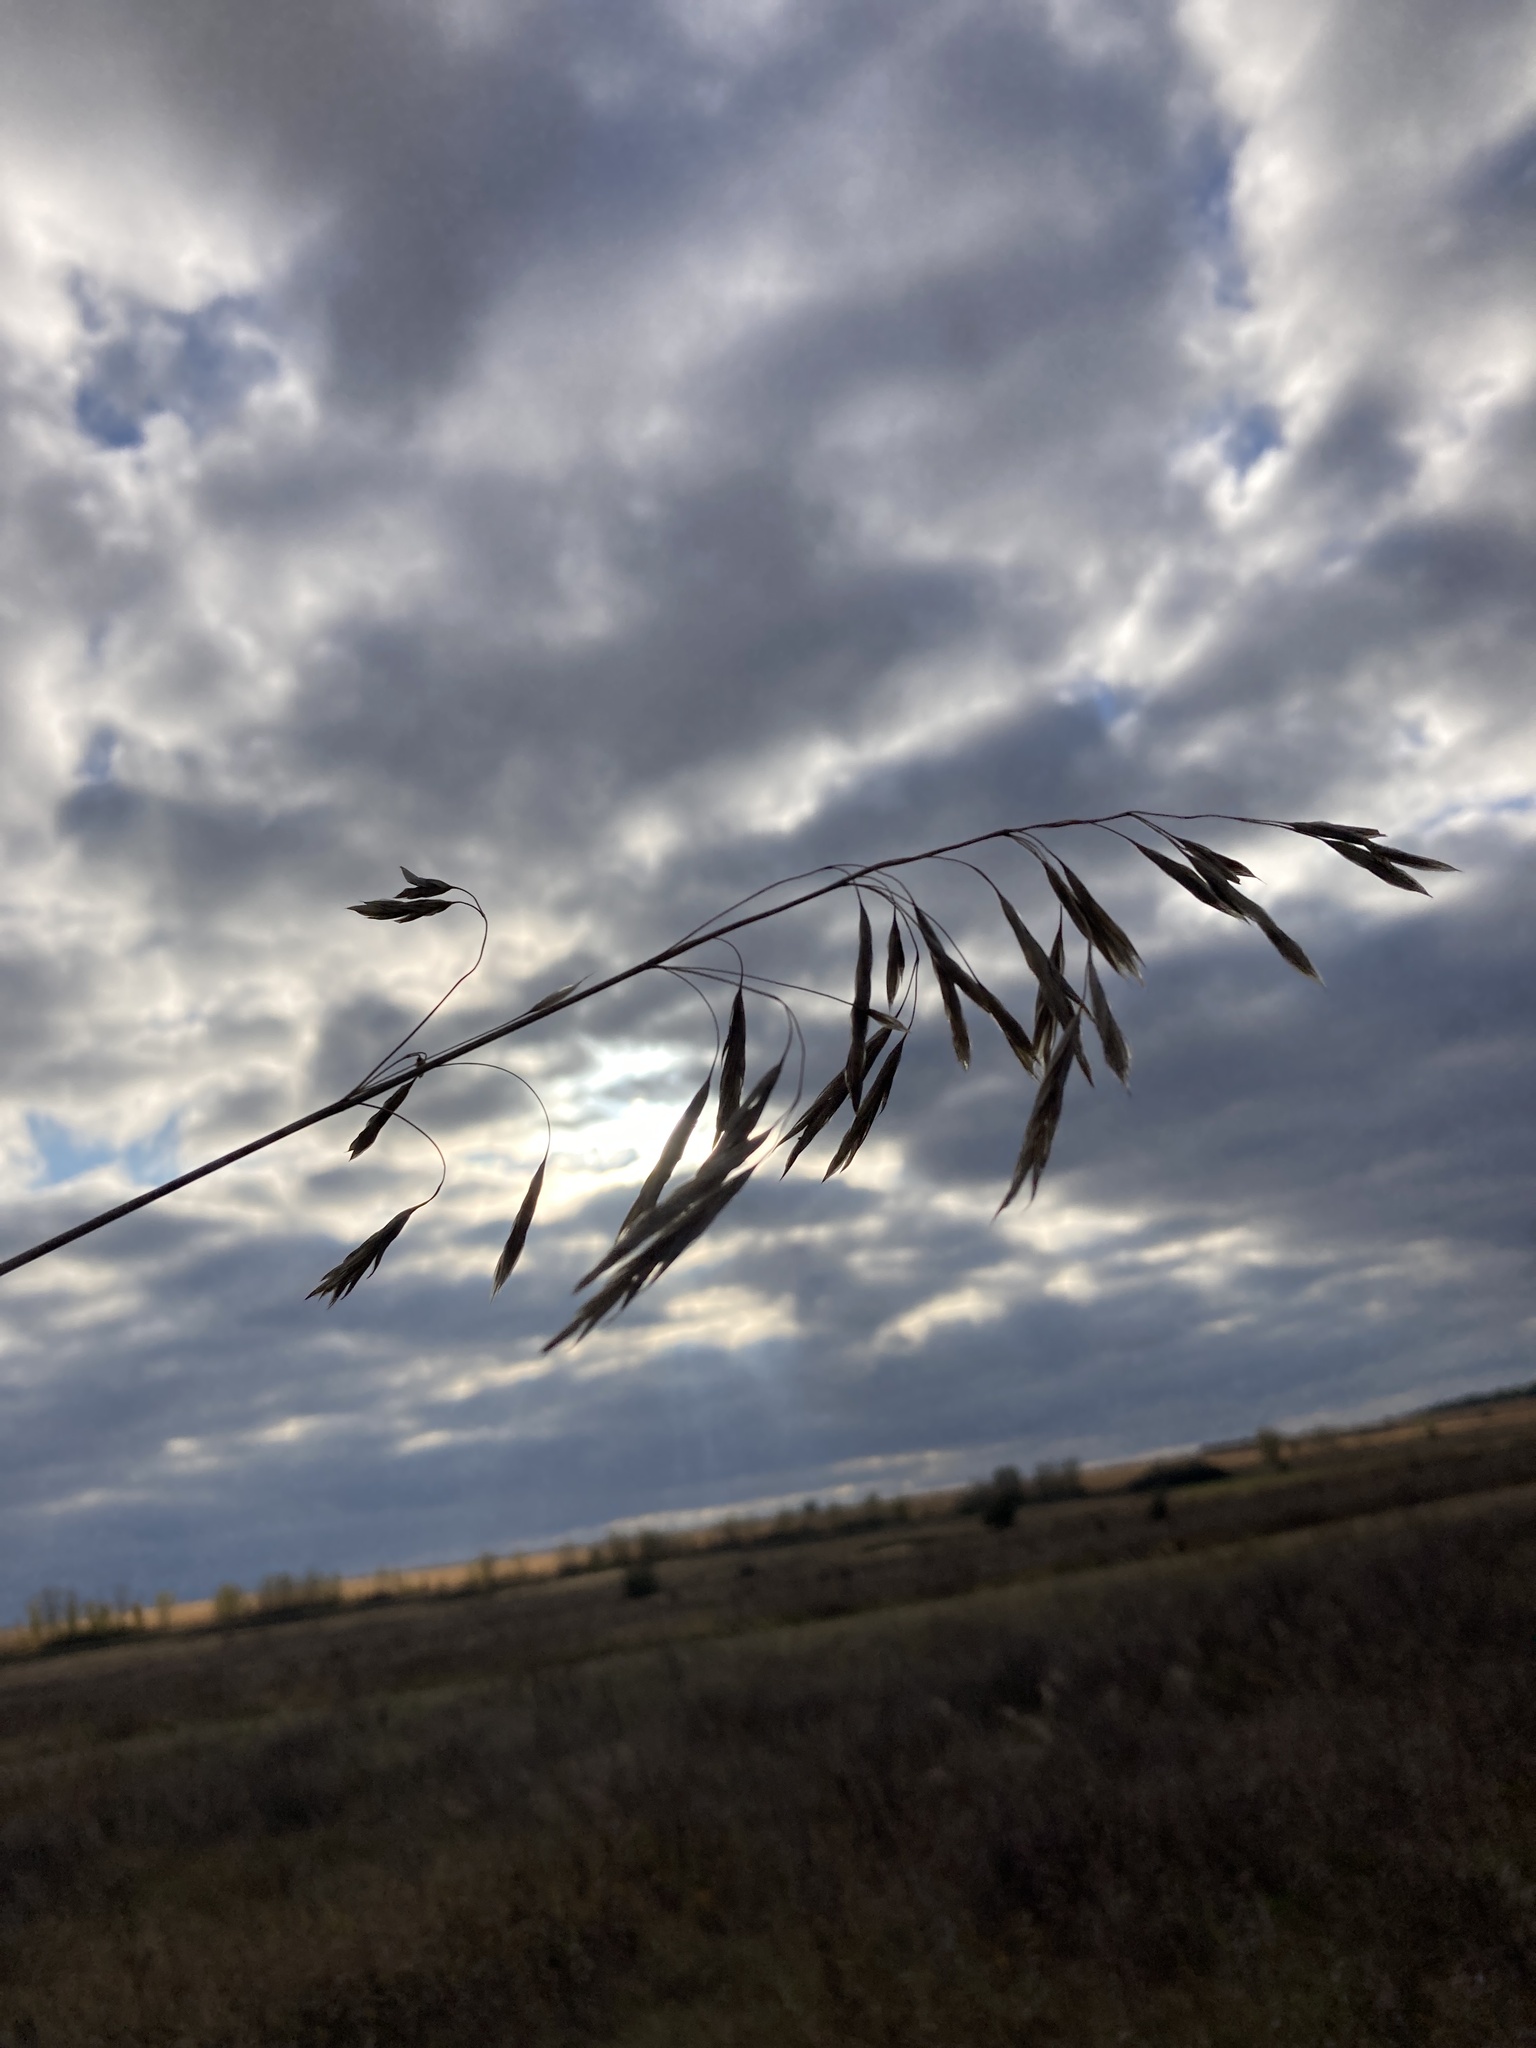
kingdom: Plantae
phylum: Tracheophyta
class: Liliopsida
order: Poales
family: Poaceae
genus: Bromus
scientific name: Bromus inermis
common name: Smooth brome
